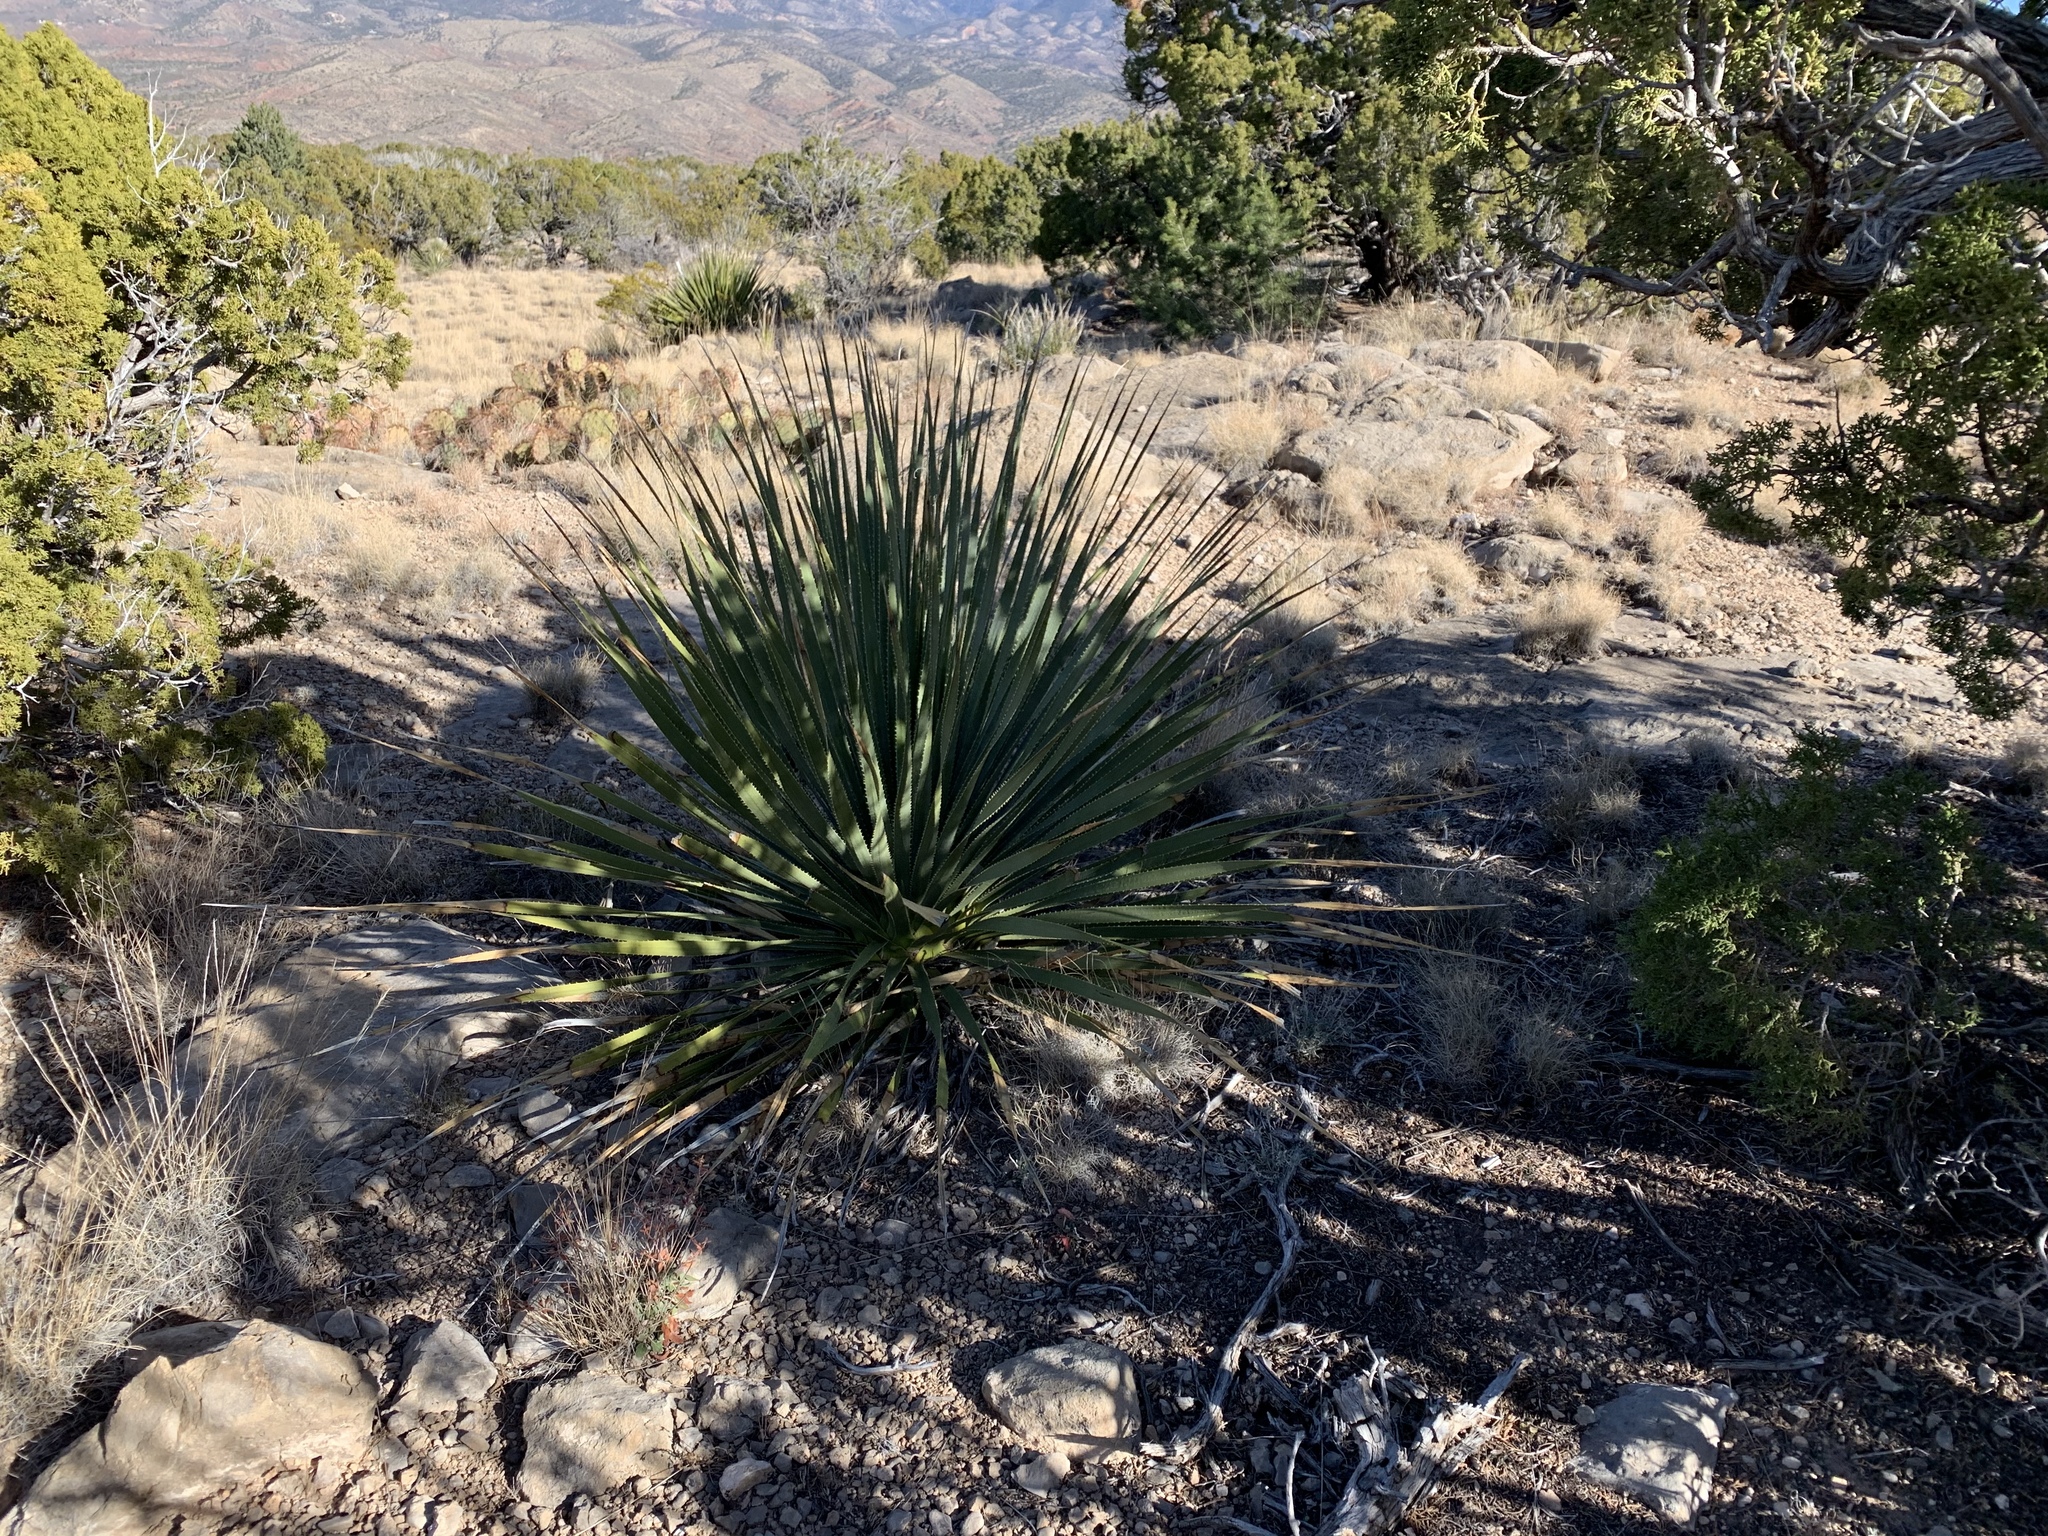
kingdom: Plantae
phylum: Tracheophyta
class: Liliopsida
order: Asparagales
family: Asparagaceae
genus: Dasylirion
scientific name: Dasylirion wheeleri
